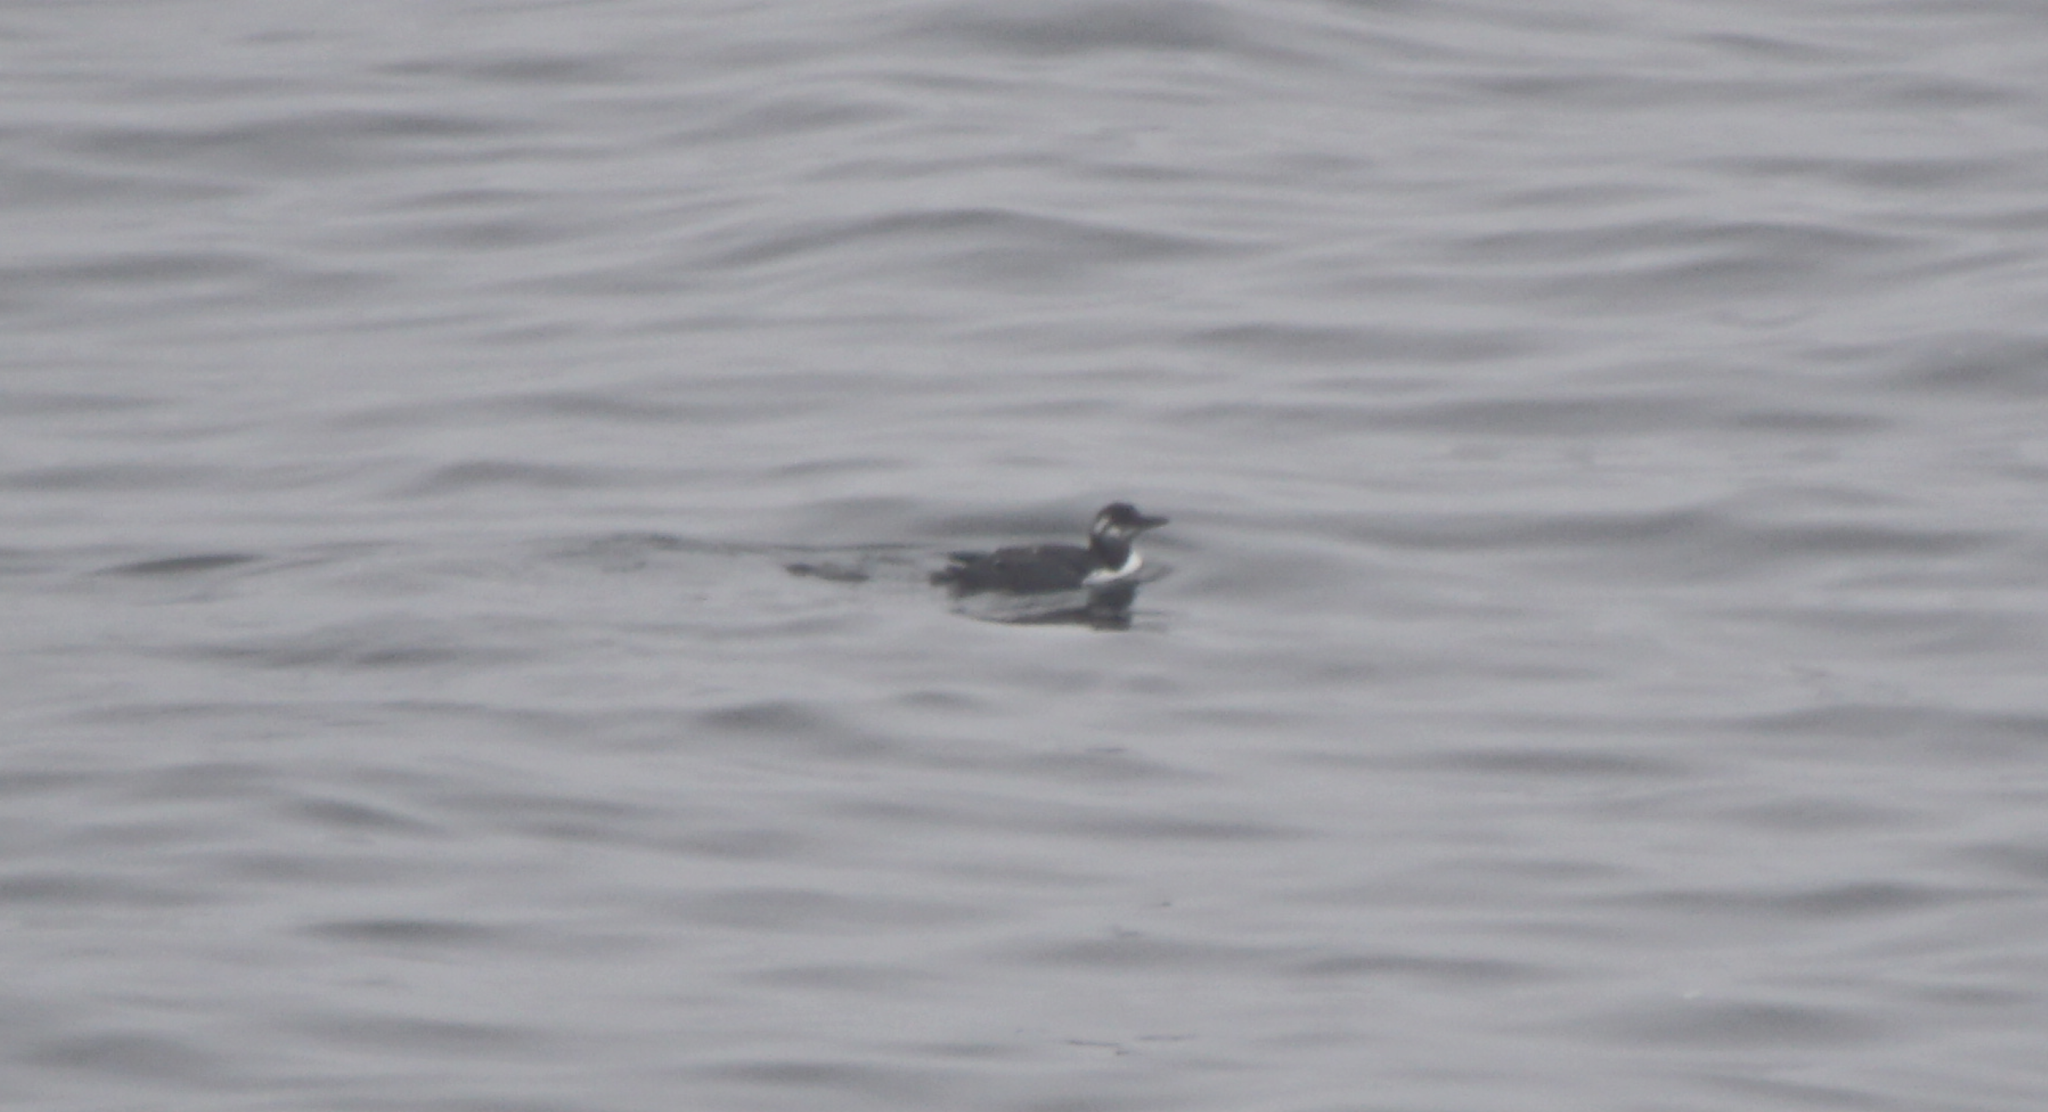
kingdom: Animalia
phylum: Chordata
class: Aves
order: Charadriiformes
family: Alcidae
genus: Uria
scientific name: Uria aalge
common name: Common murre
